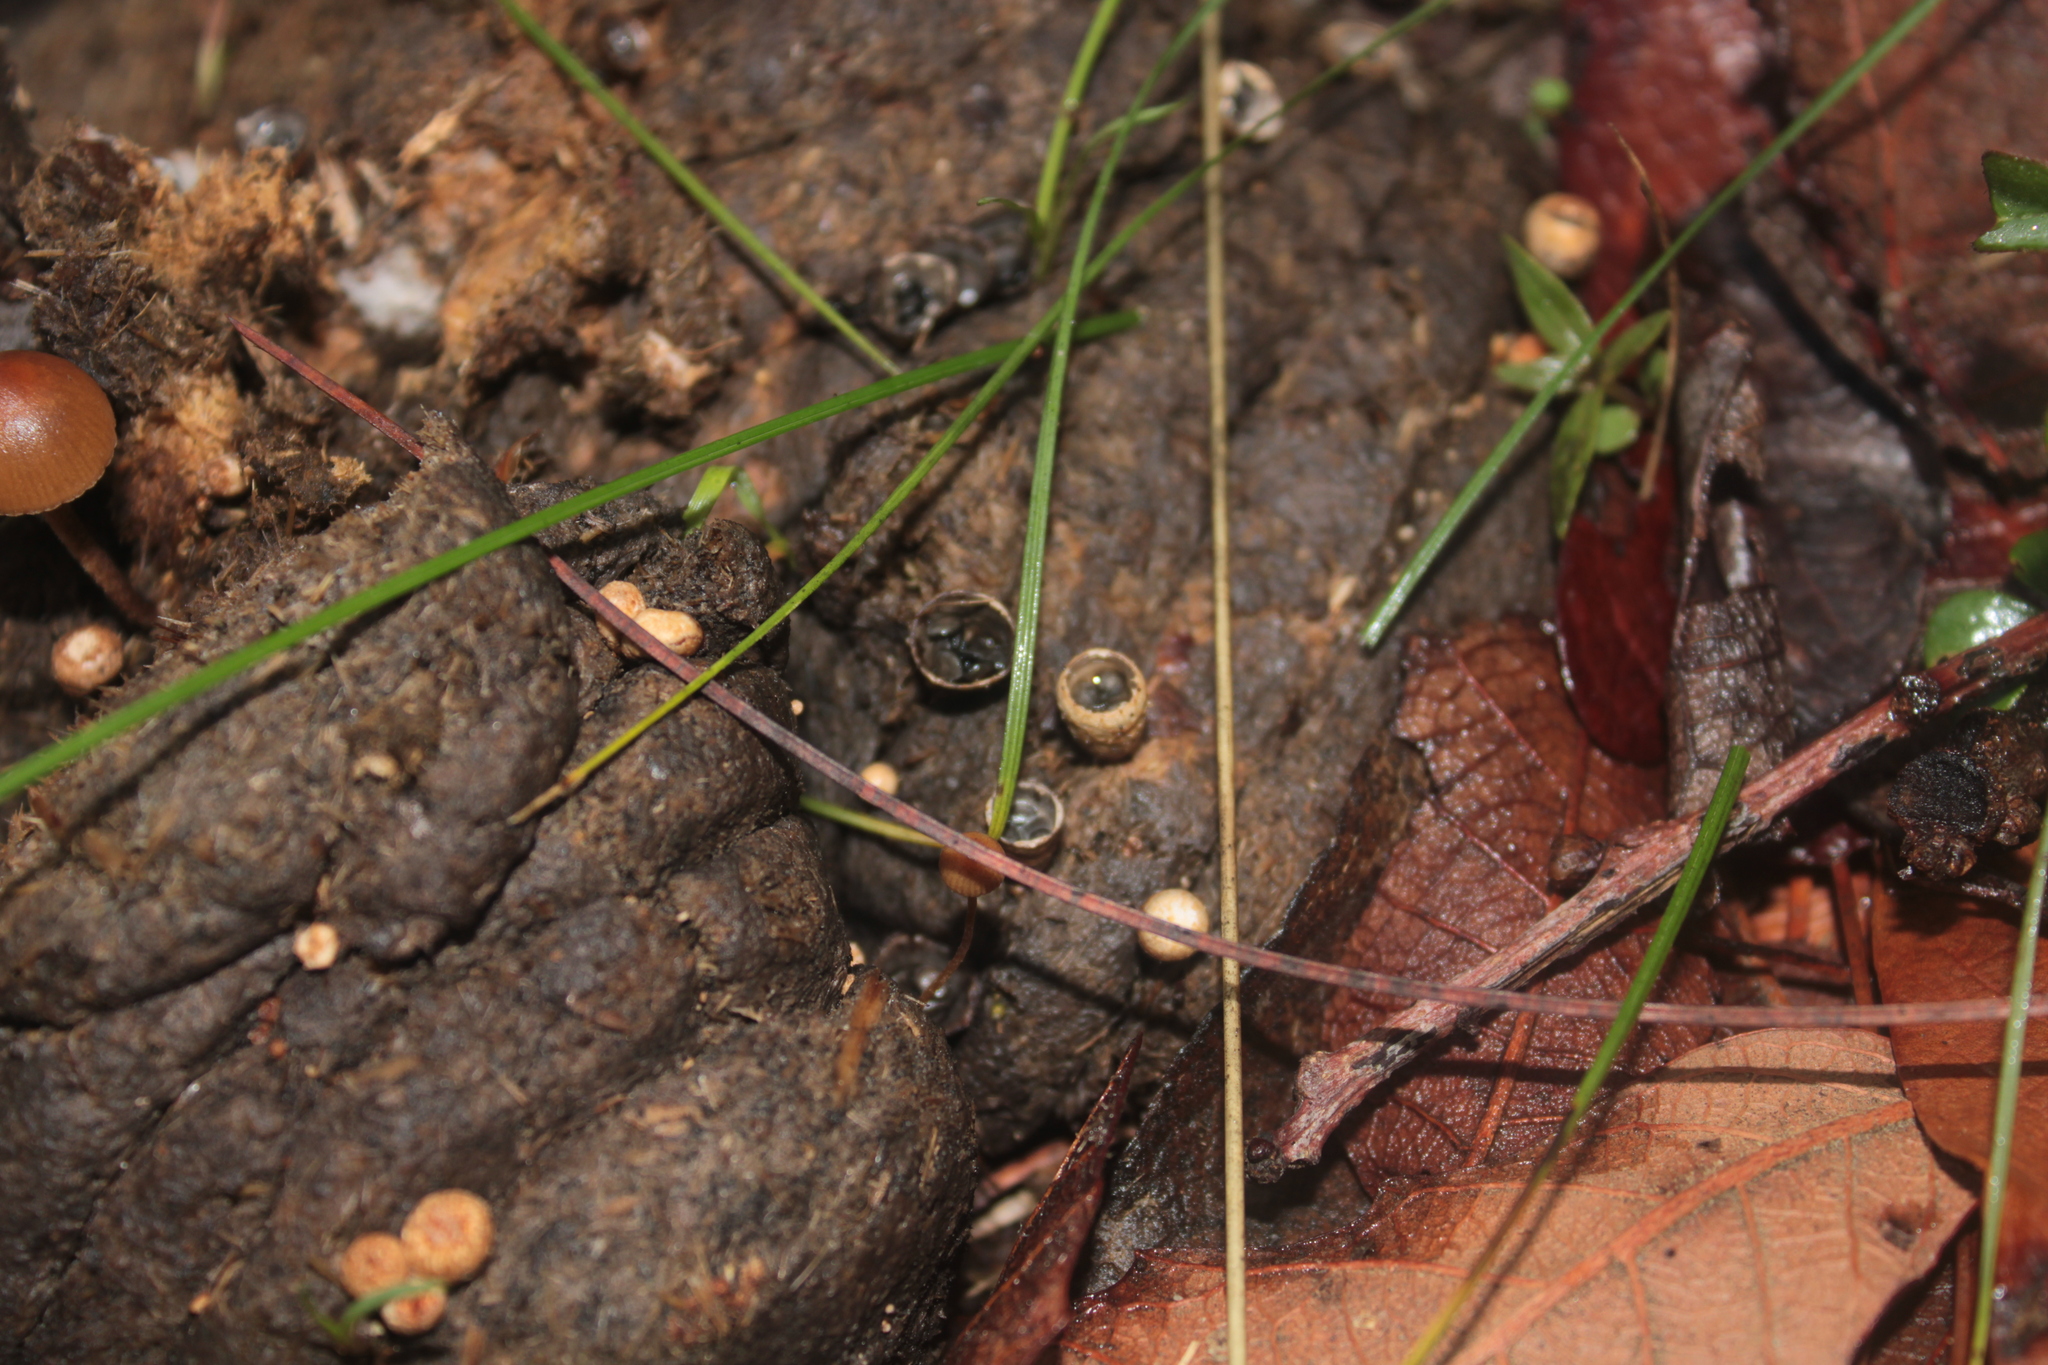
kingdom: Fungi
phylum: Basidiomycota
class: Agaricomycetes
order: Agaricales
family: Agaricaceae
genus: Cyathus
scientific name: Cyathus stercoreus
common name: Dung bird's nest
